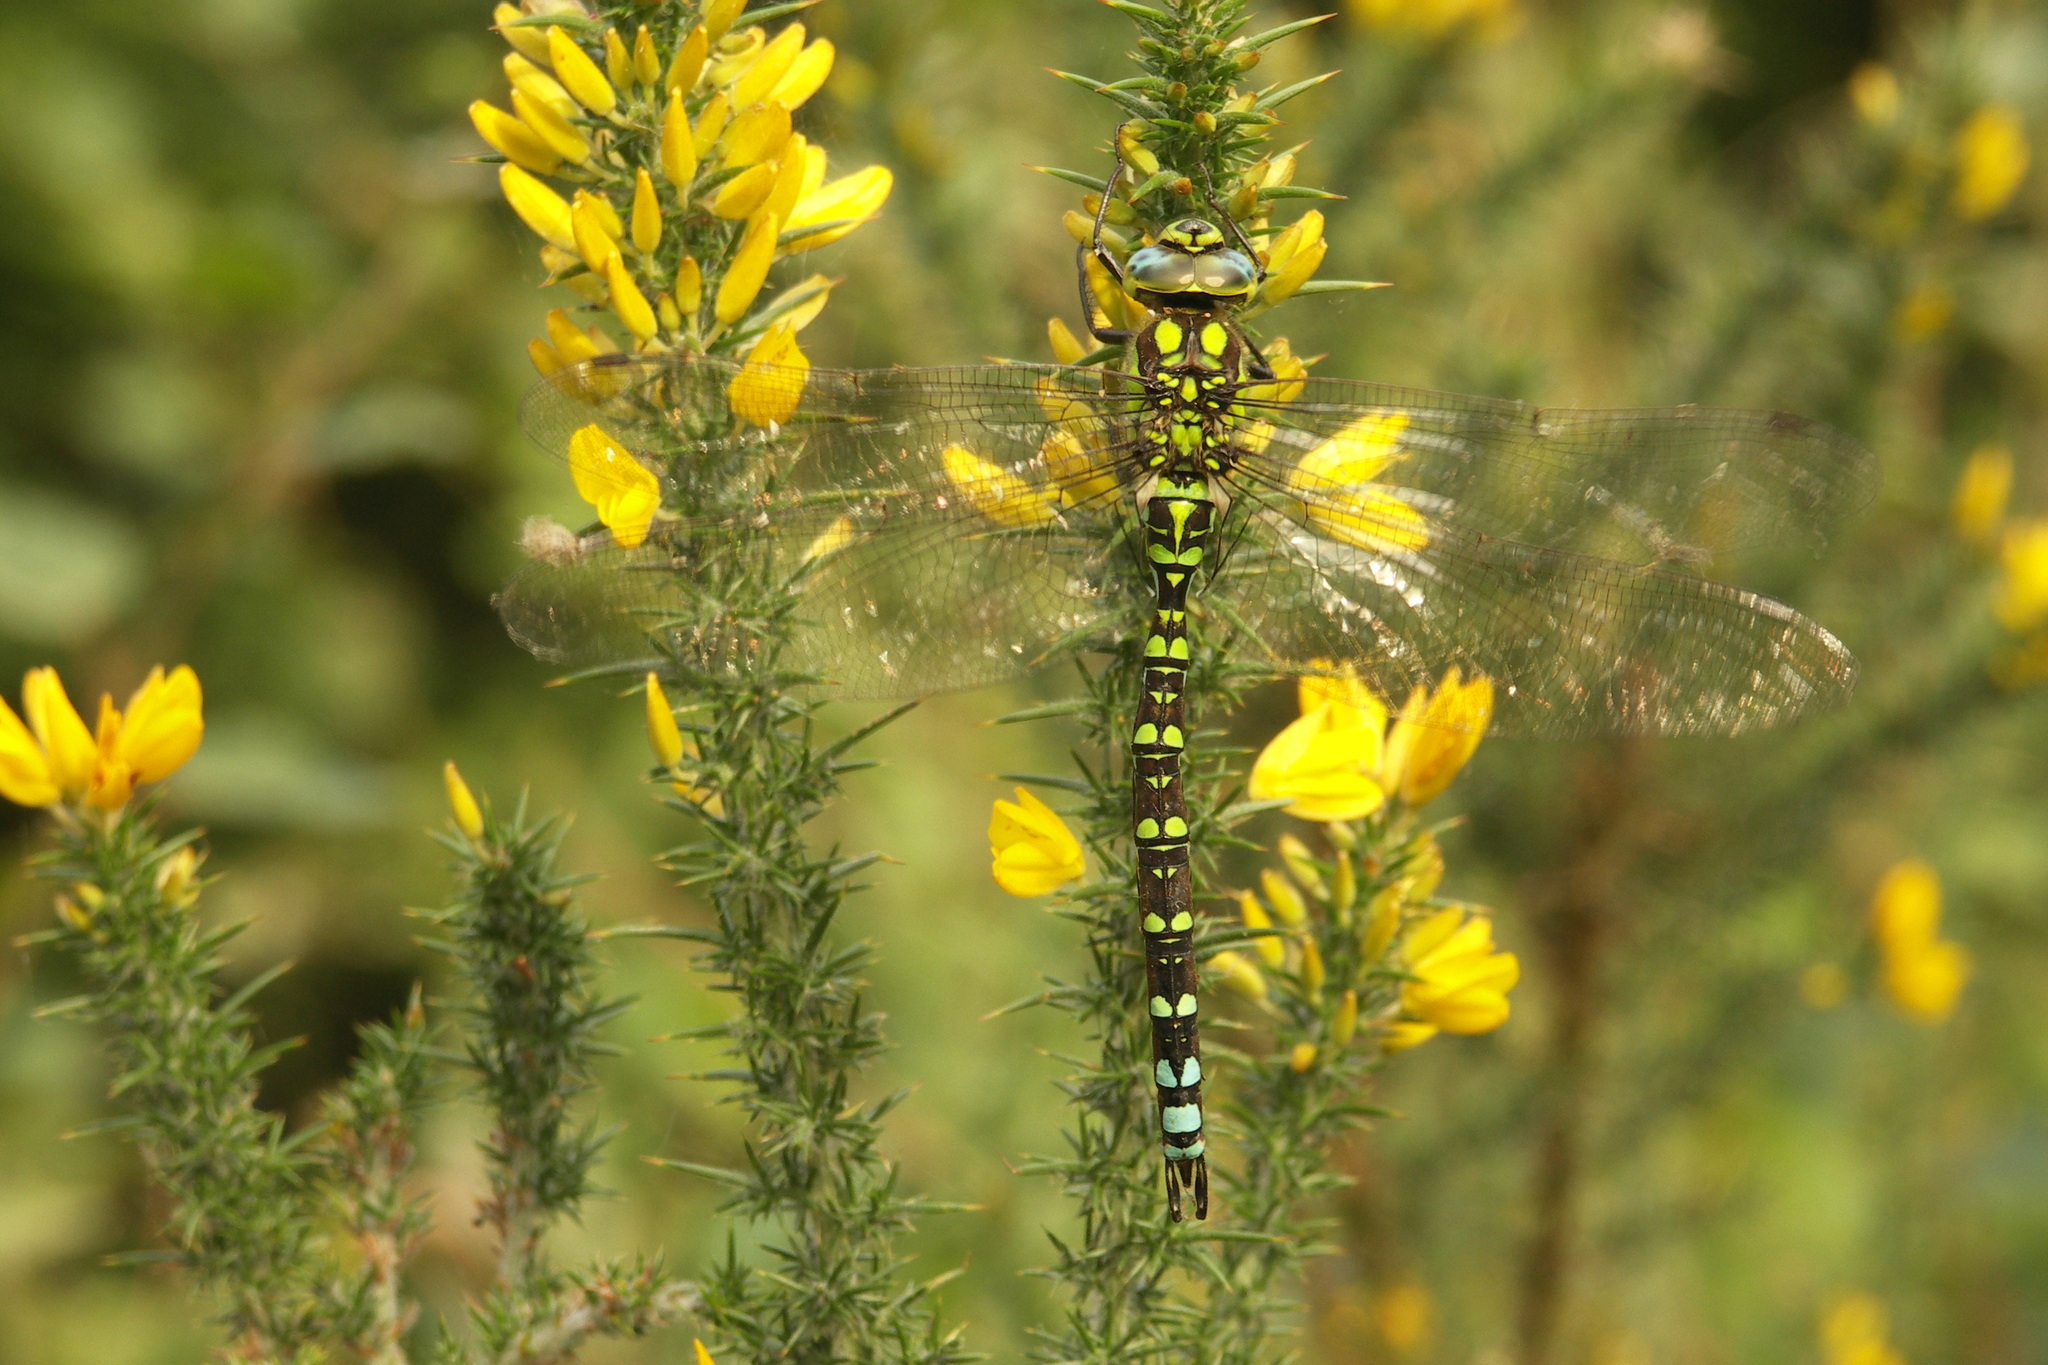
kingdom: Animalia
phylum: Arthropoda
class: Insecta
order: Odonata
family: Aeshnidae
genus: Aeshna
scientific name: Aeshna cyanea
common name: Southern hawker
